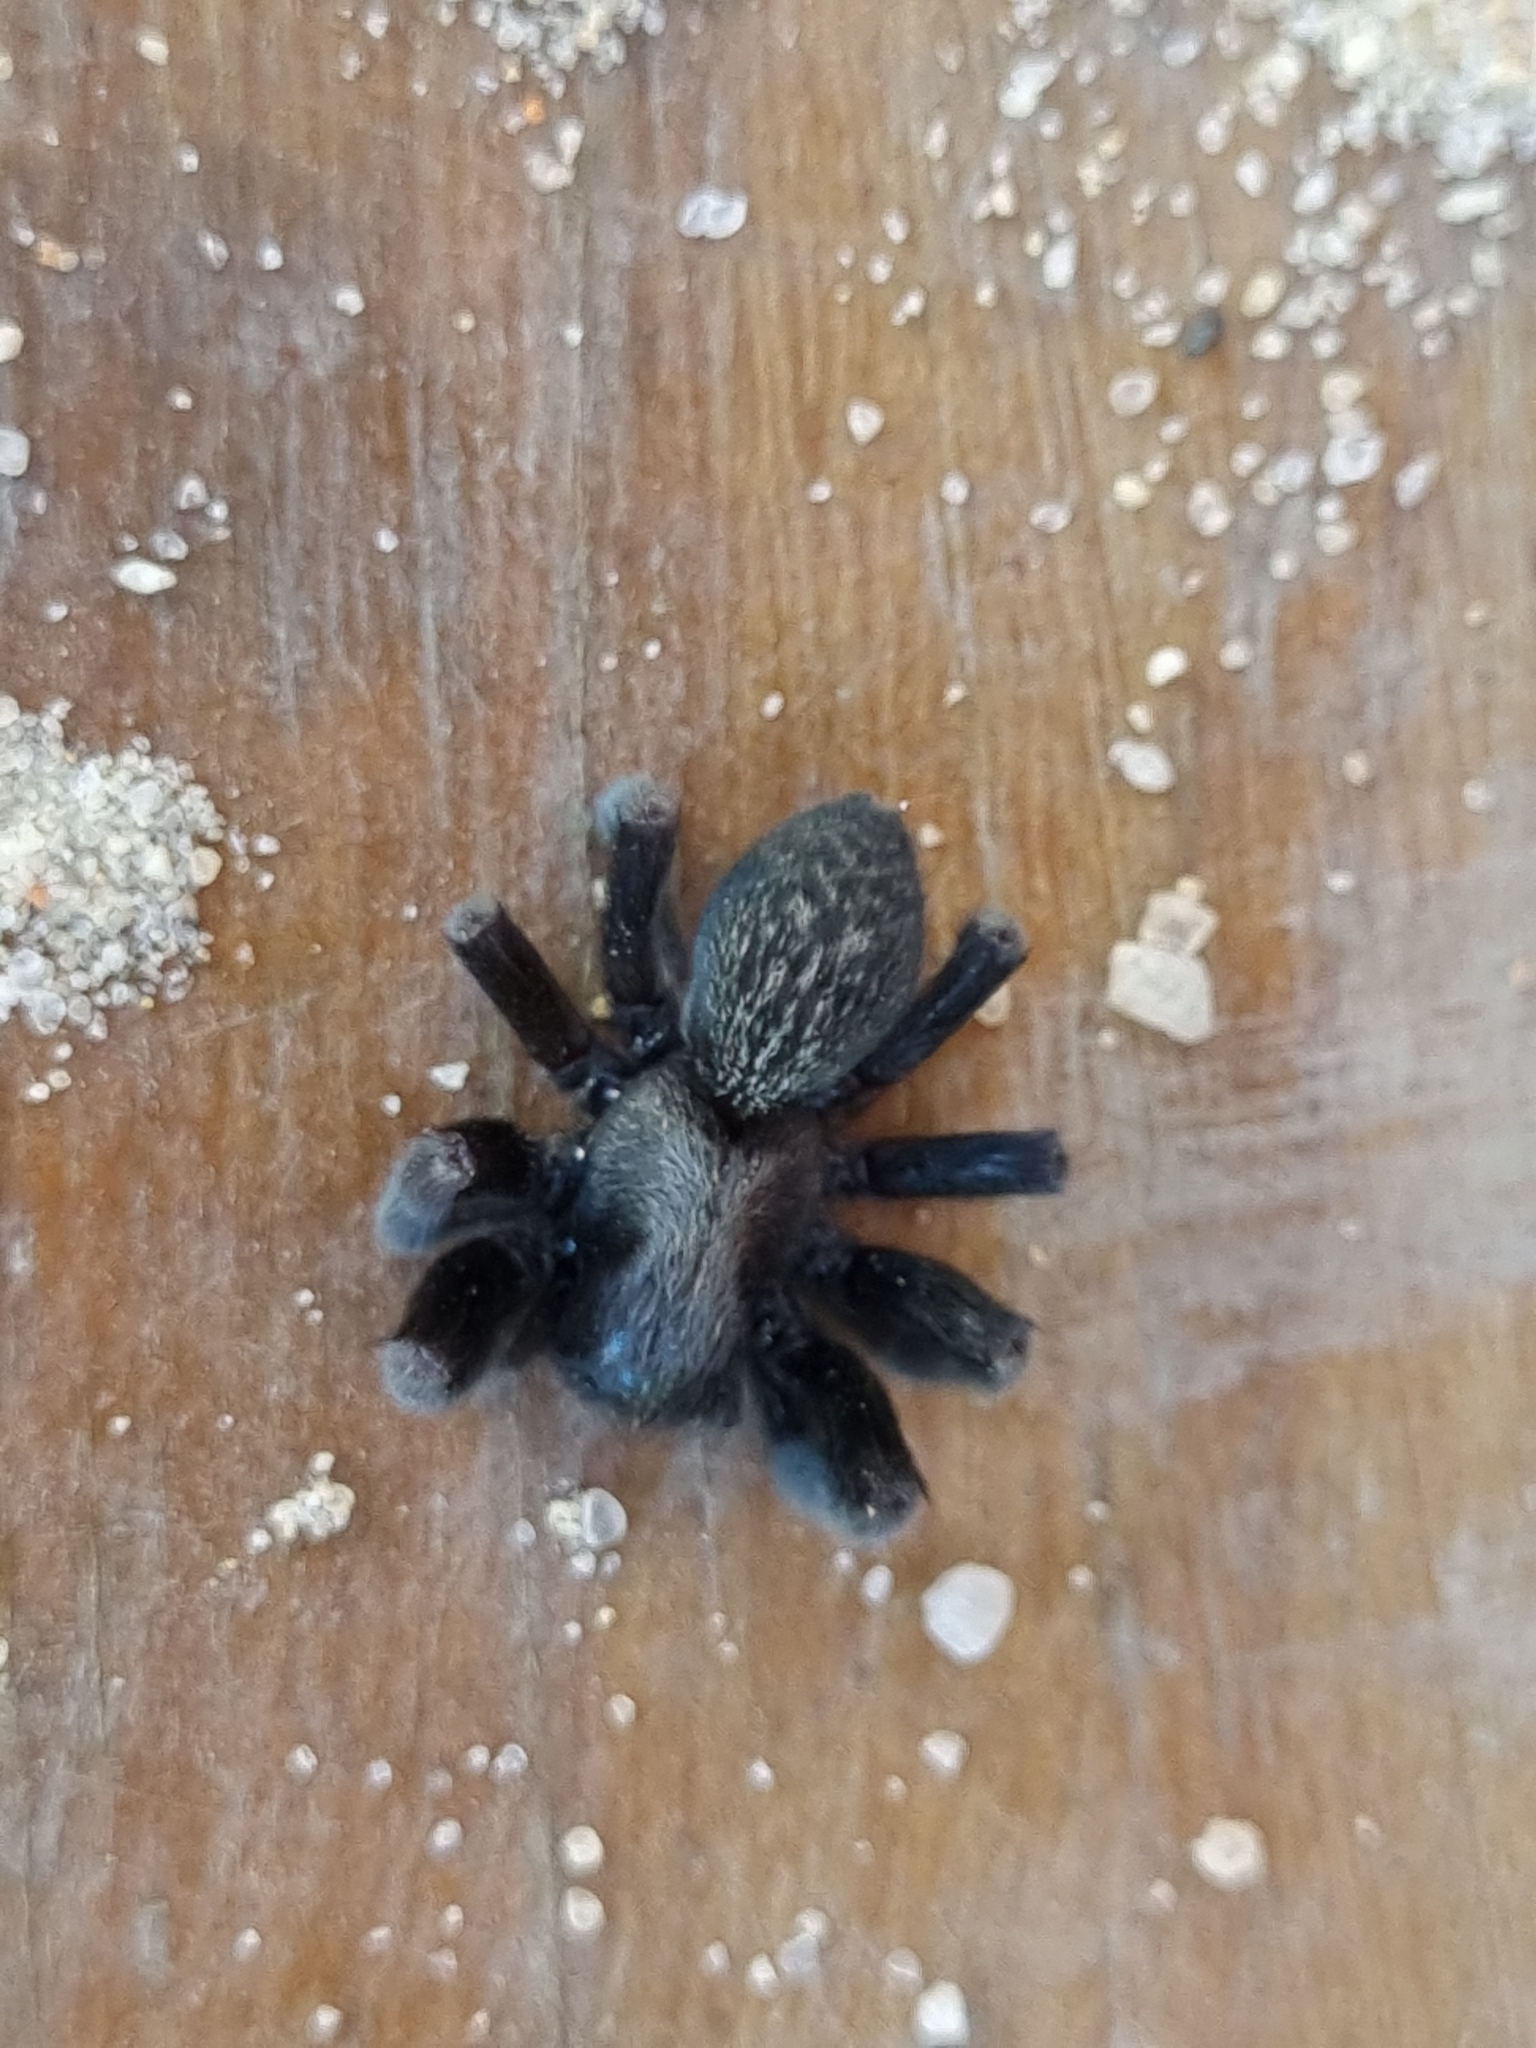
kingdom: Animalia
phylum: Arthropoda
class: Arachnida
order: Araneae
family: Desidae
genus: Badumna
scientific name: Badumna insignis
